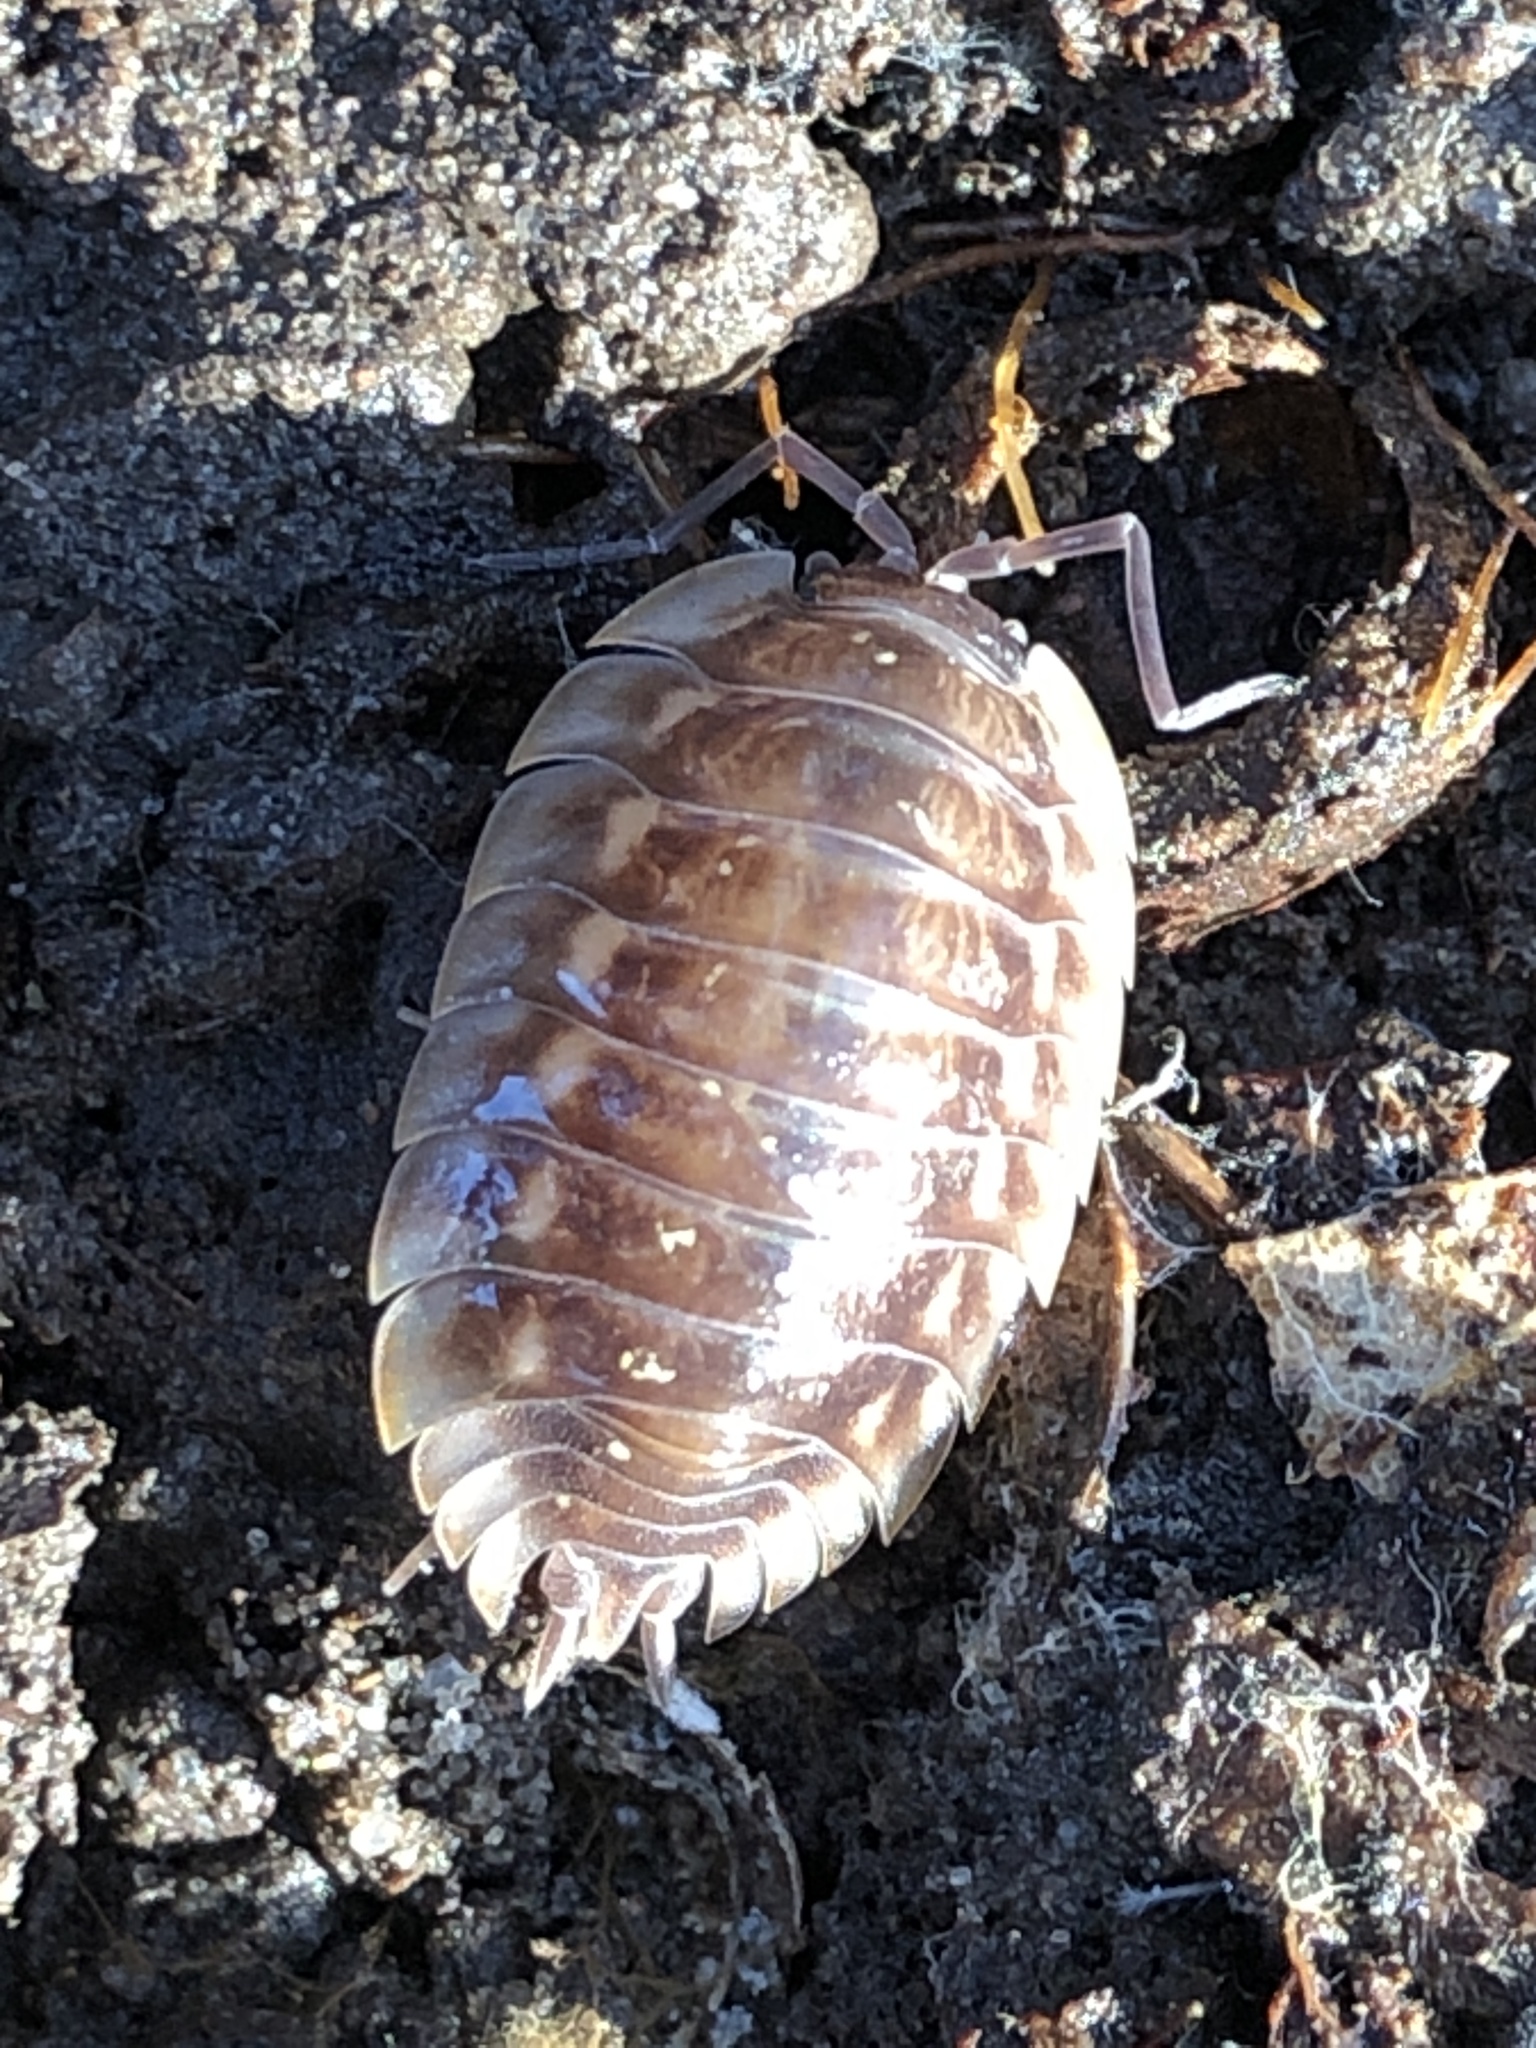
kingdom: Animalia
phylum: Arthropoda
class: Malacostraca
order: Isopoda
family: Oniscidae
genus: Oniscus
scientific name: Oniscus asellus
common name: Common shiny woodlouse
